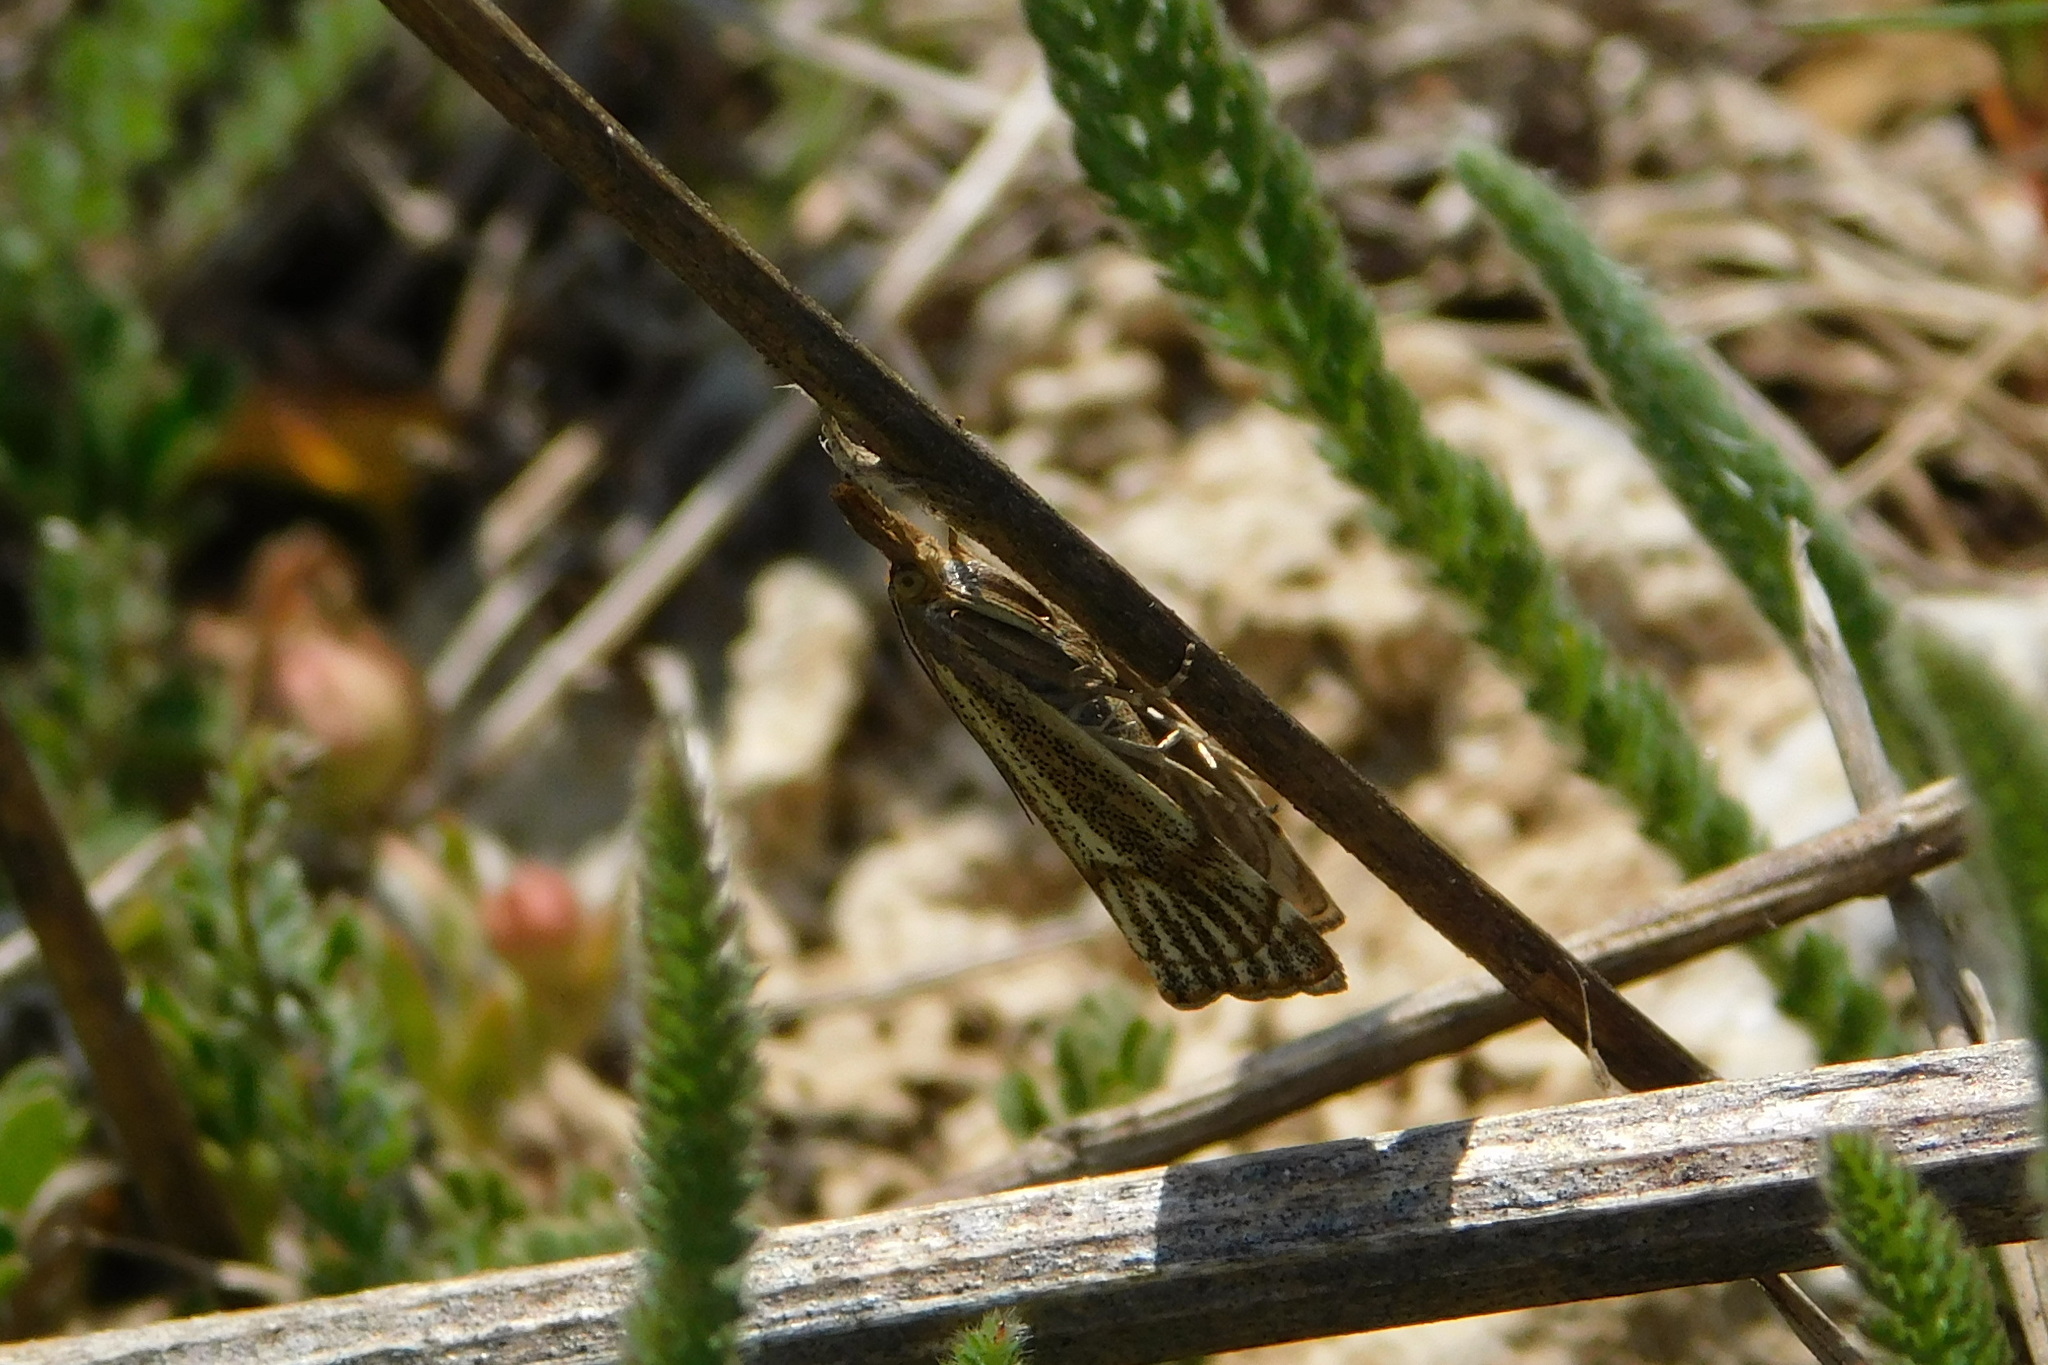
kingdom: Animalia
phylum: Arthropoda
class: Insecta
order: Lepidoptera
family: Crambidae
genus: Thisanotia
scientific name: Thisanotia chrysonuchella
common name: Powdered grass-veneer
